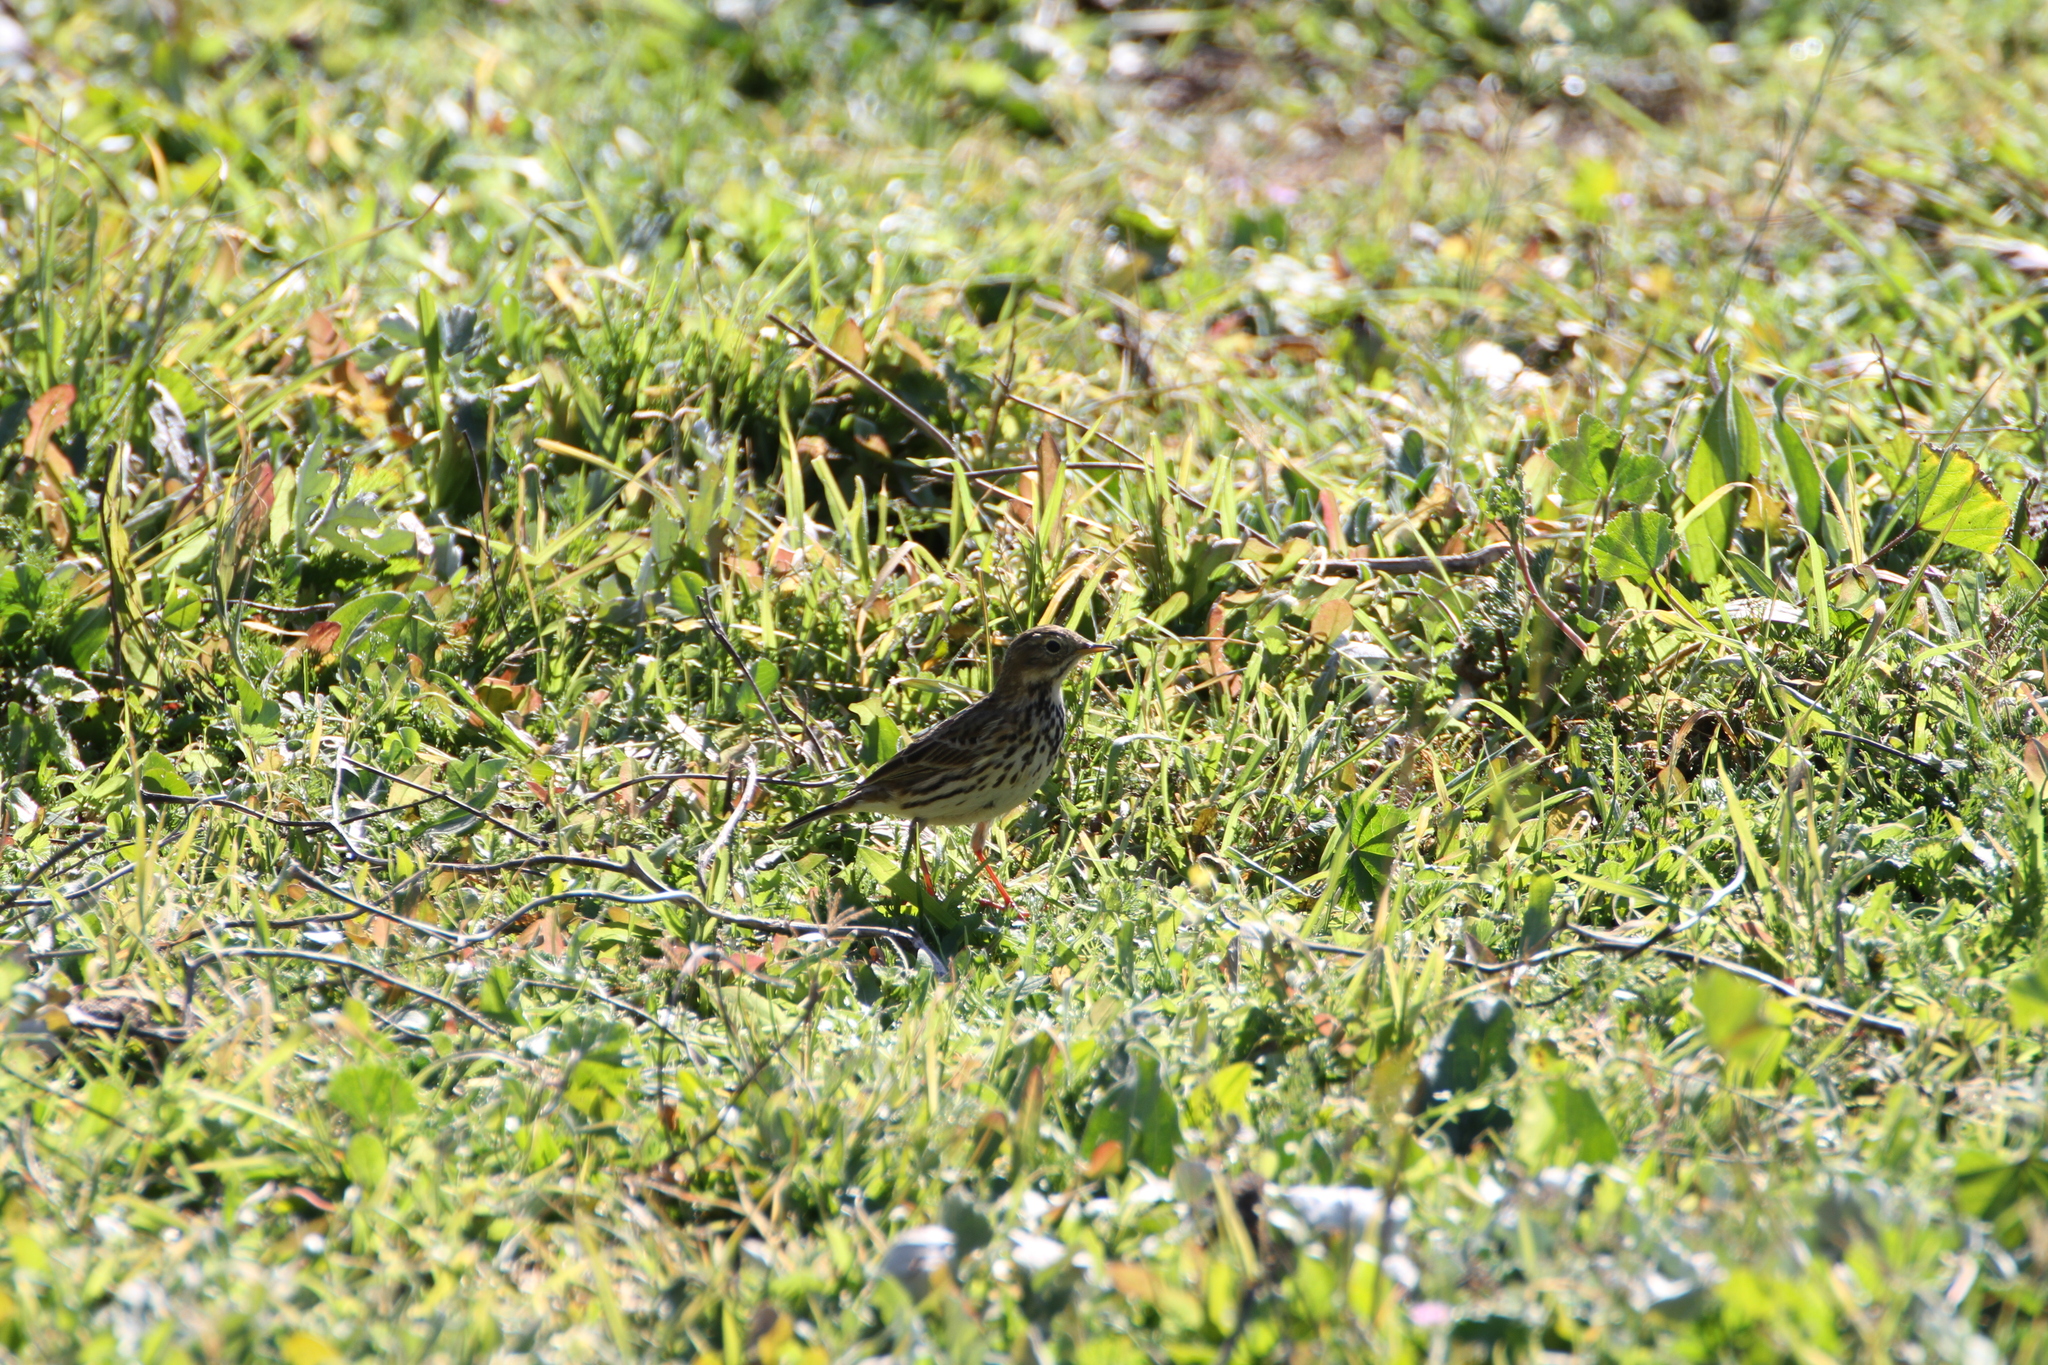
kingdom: Animalia
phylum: Chordata
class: Aves
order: Passeriformes
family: Motacillidae
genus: Anthus
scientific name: Anthus pratensis
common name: Meadow pipit
